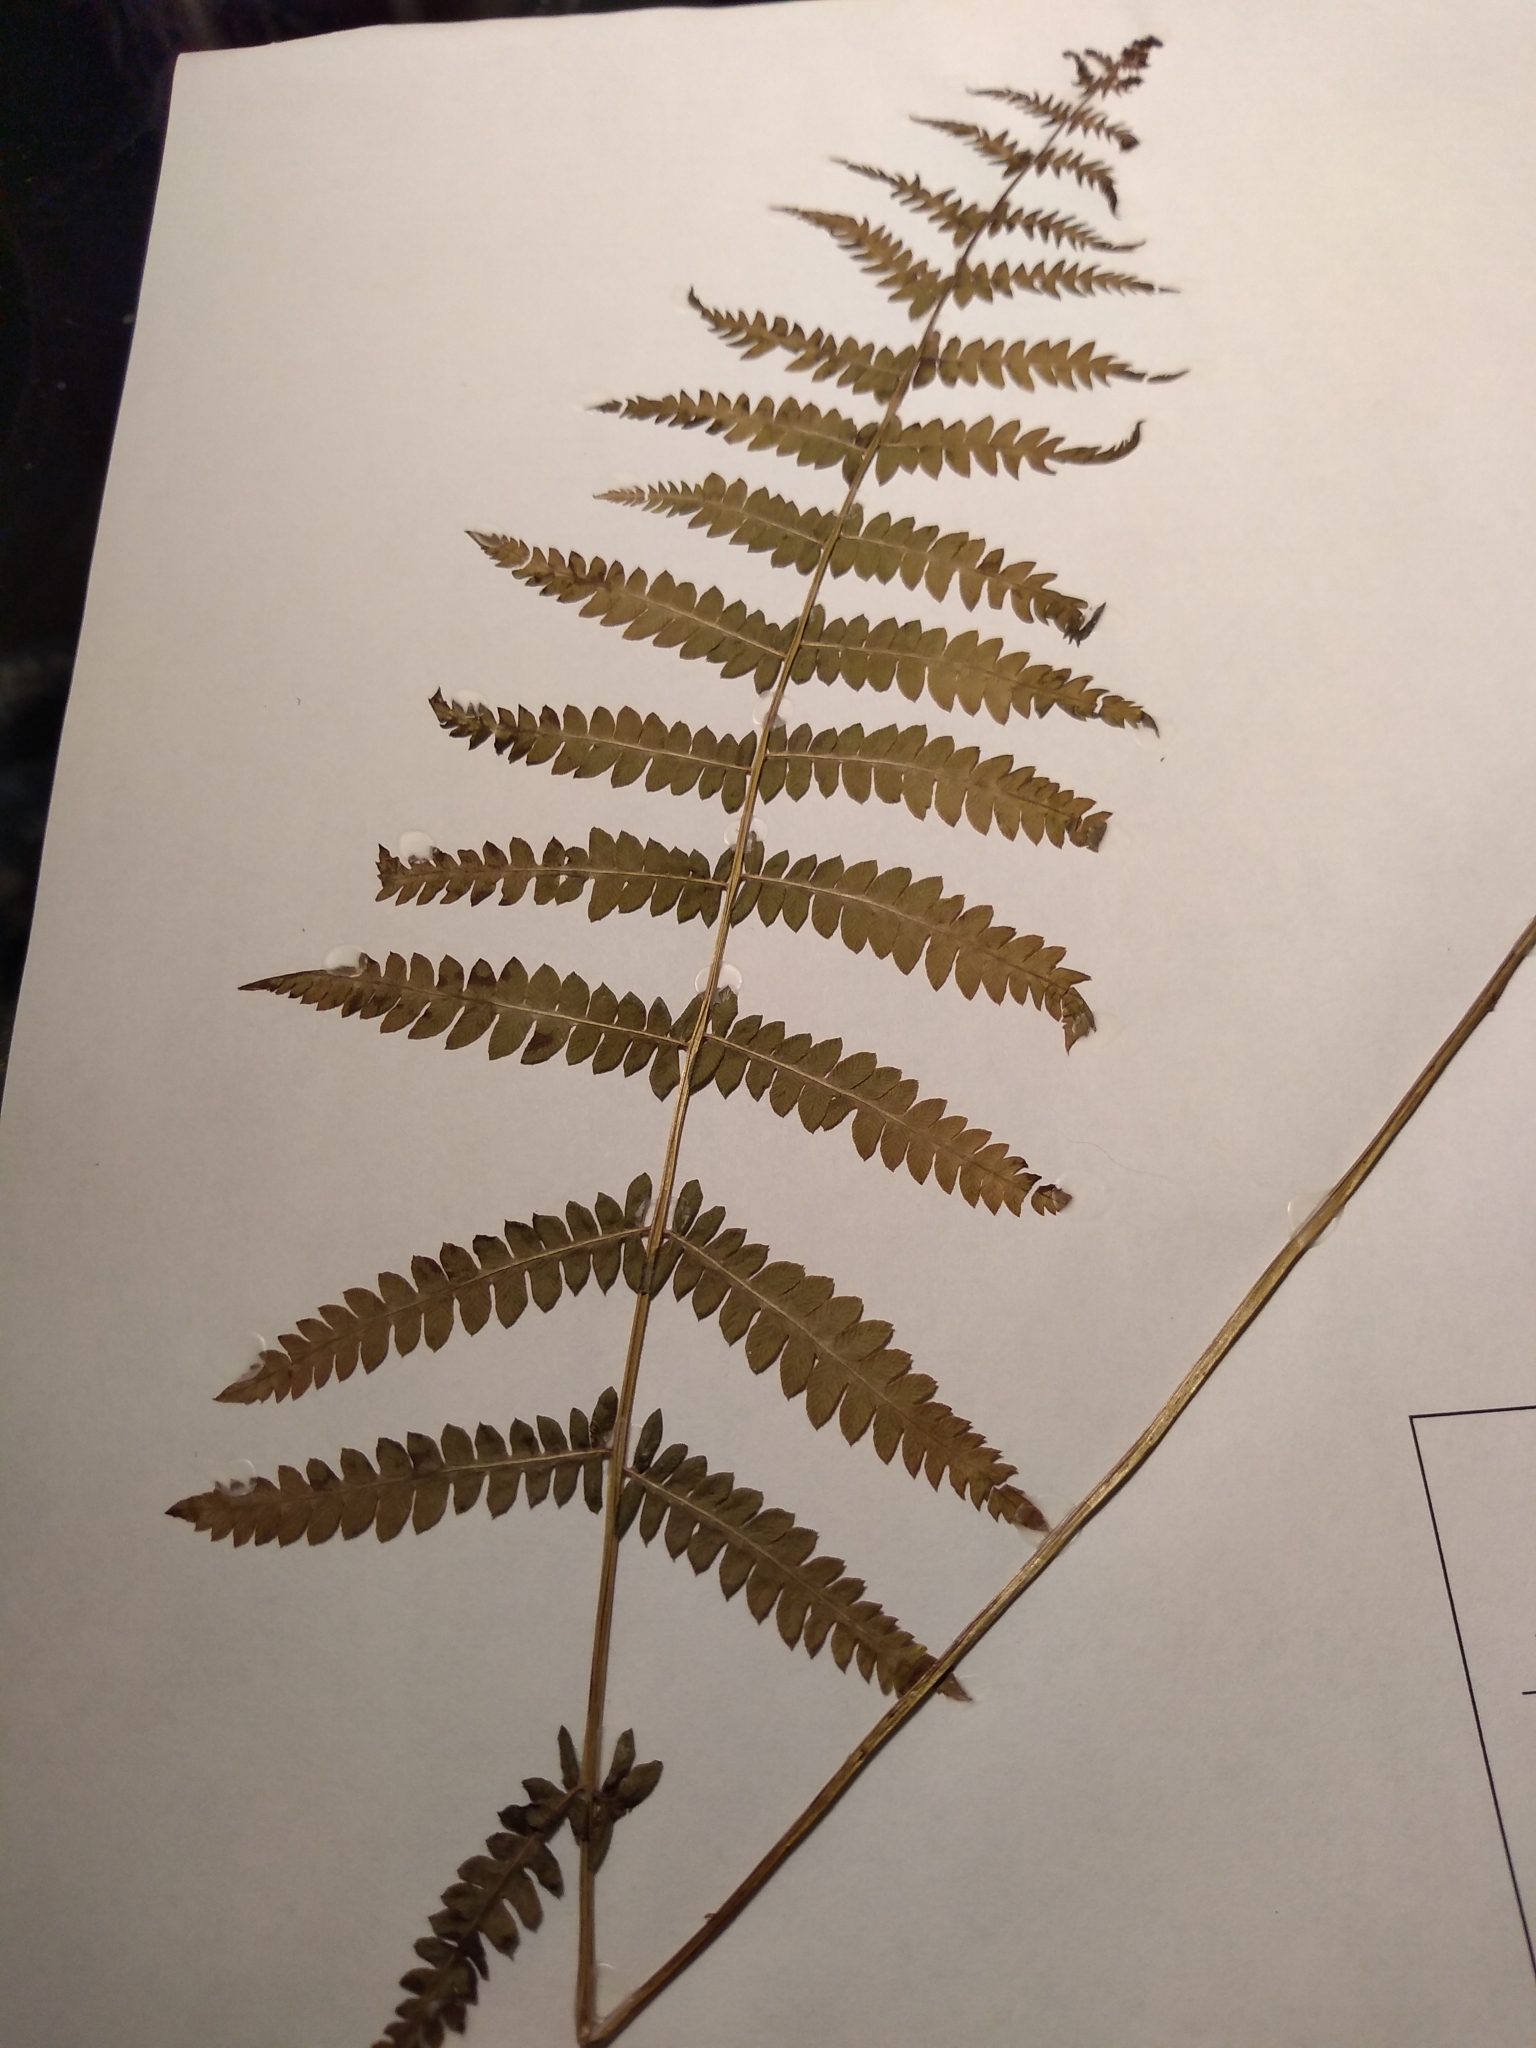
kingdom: Plantae
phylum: Tracheophyta
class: Polypodiopsida
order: Polypodiales
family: Thelypteridaceae
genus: Thelypteris
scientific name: Thelypteris palustris
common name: Marsh fern
